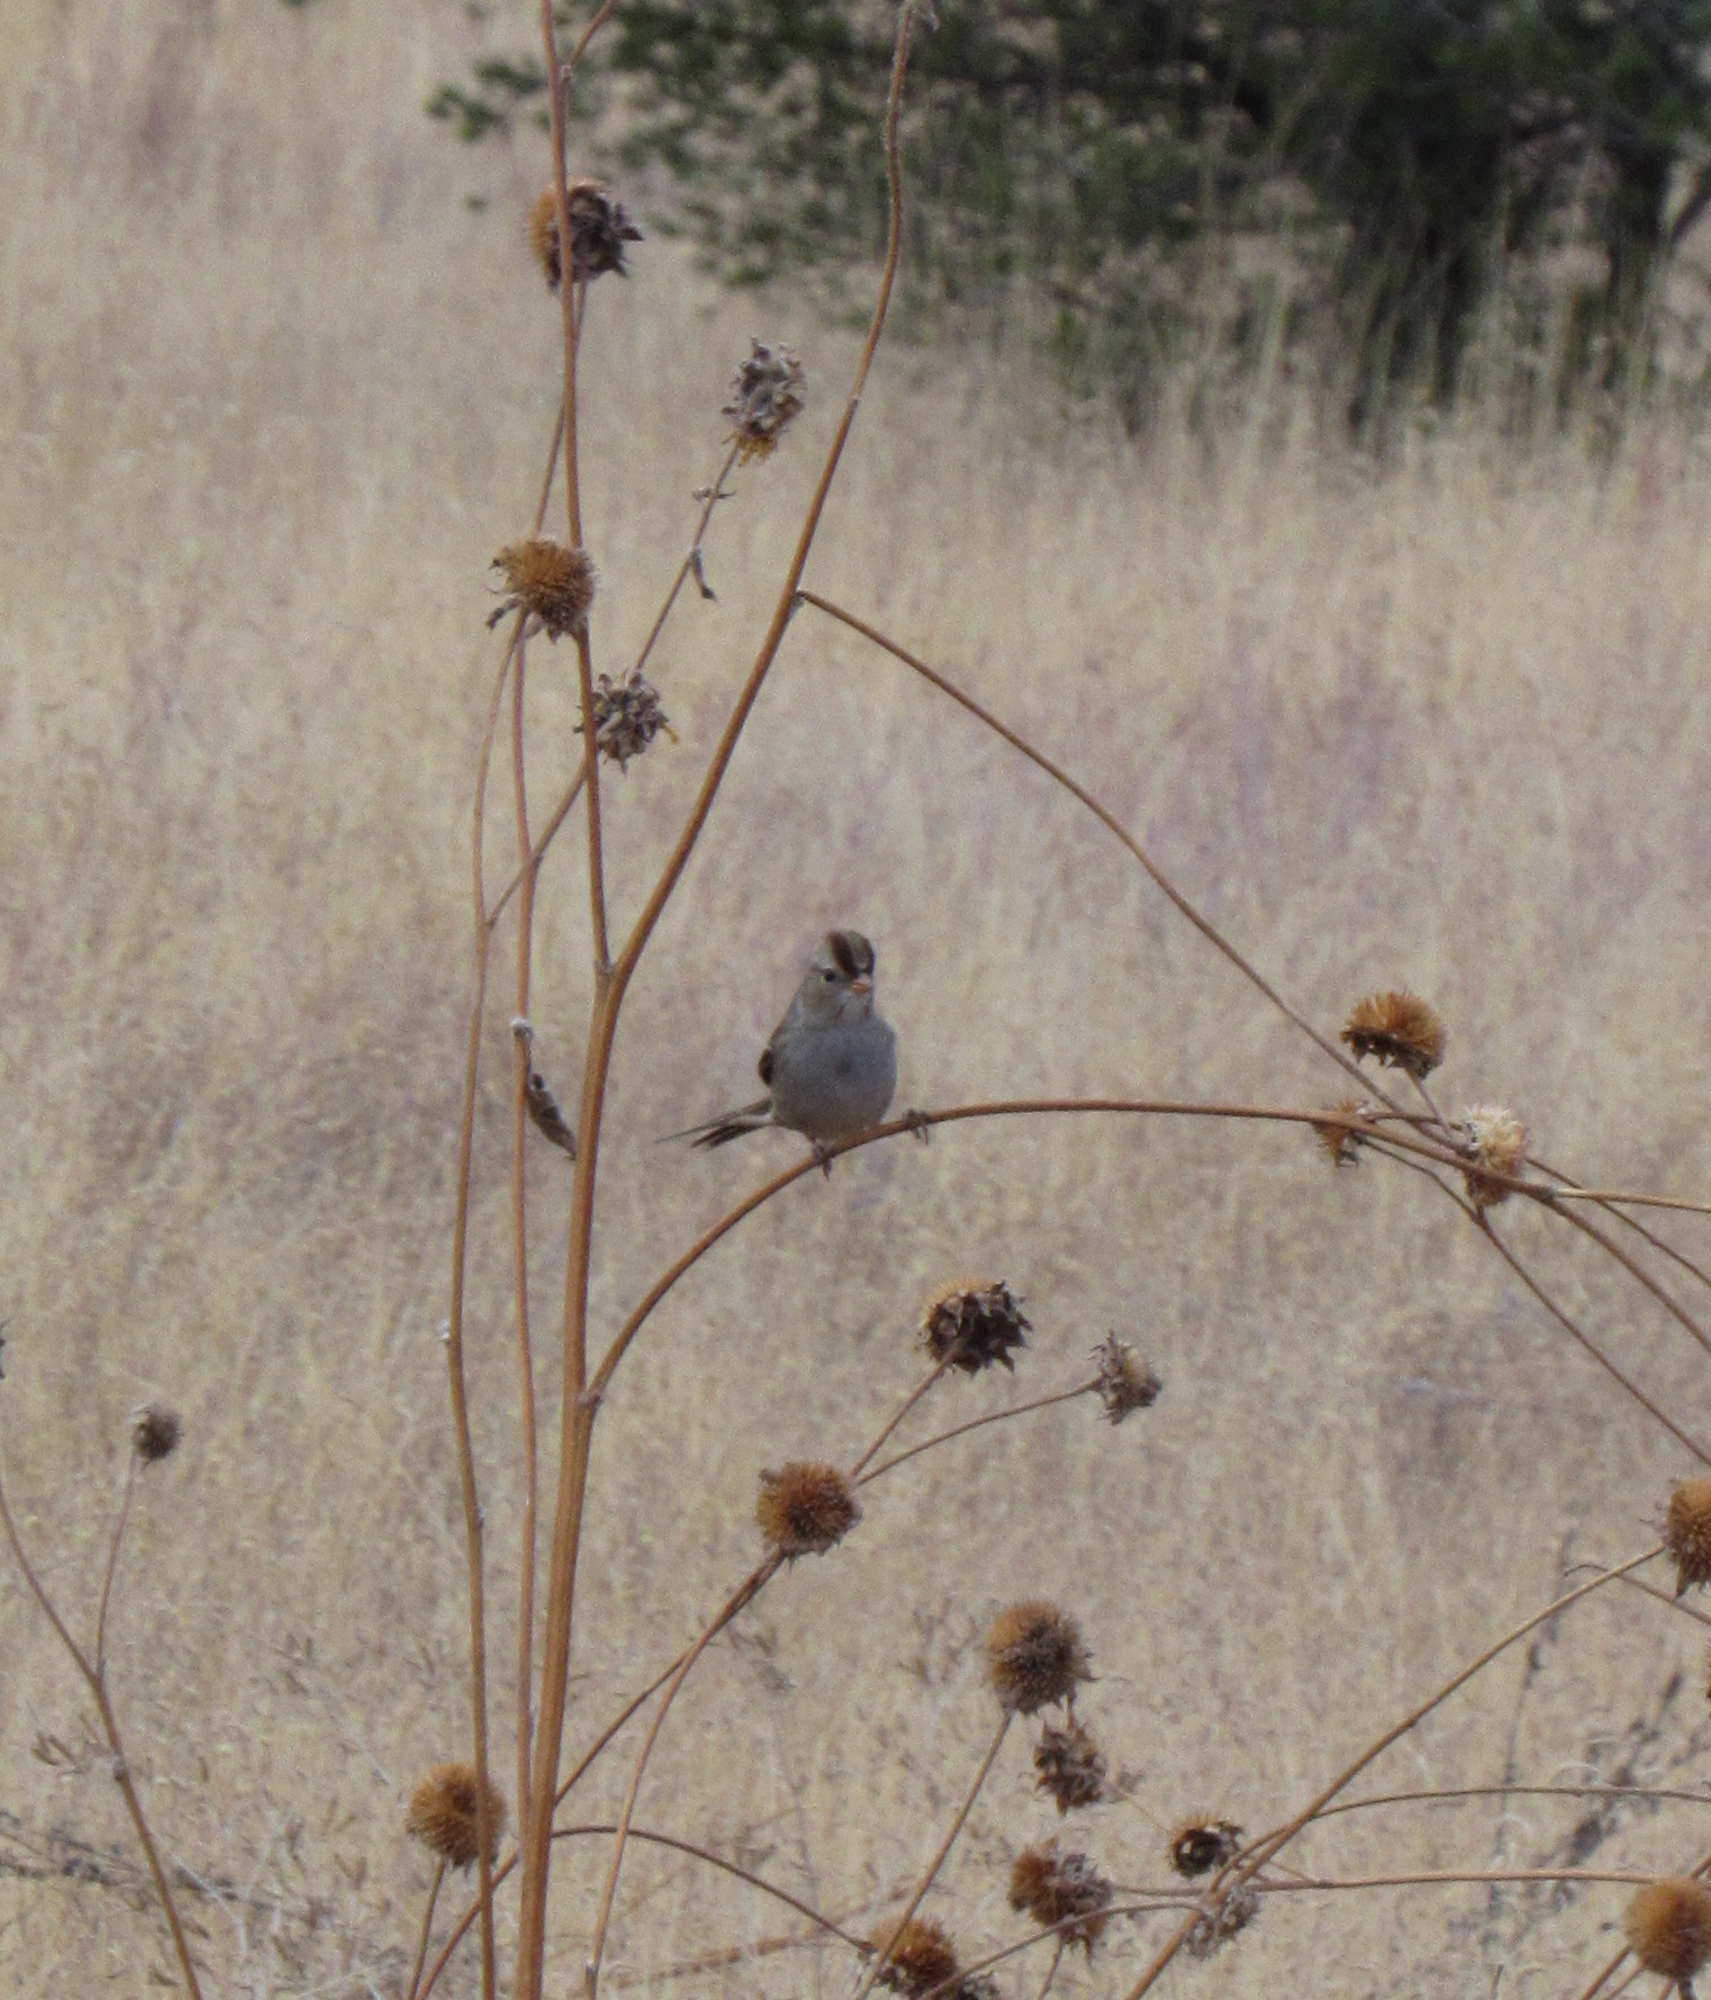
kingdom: Animalia
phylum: Chordata
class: Aves
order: Passeriformes
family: Passerellidae
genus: Zonotrichia
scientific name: Zonotrichia leucophrys
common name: White-crowned sparrow
